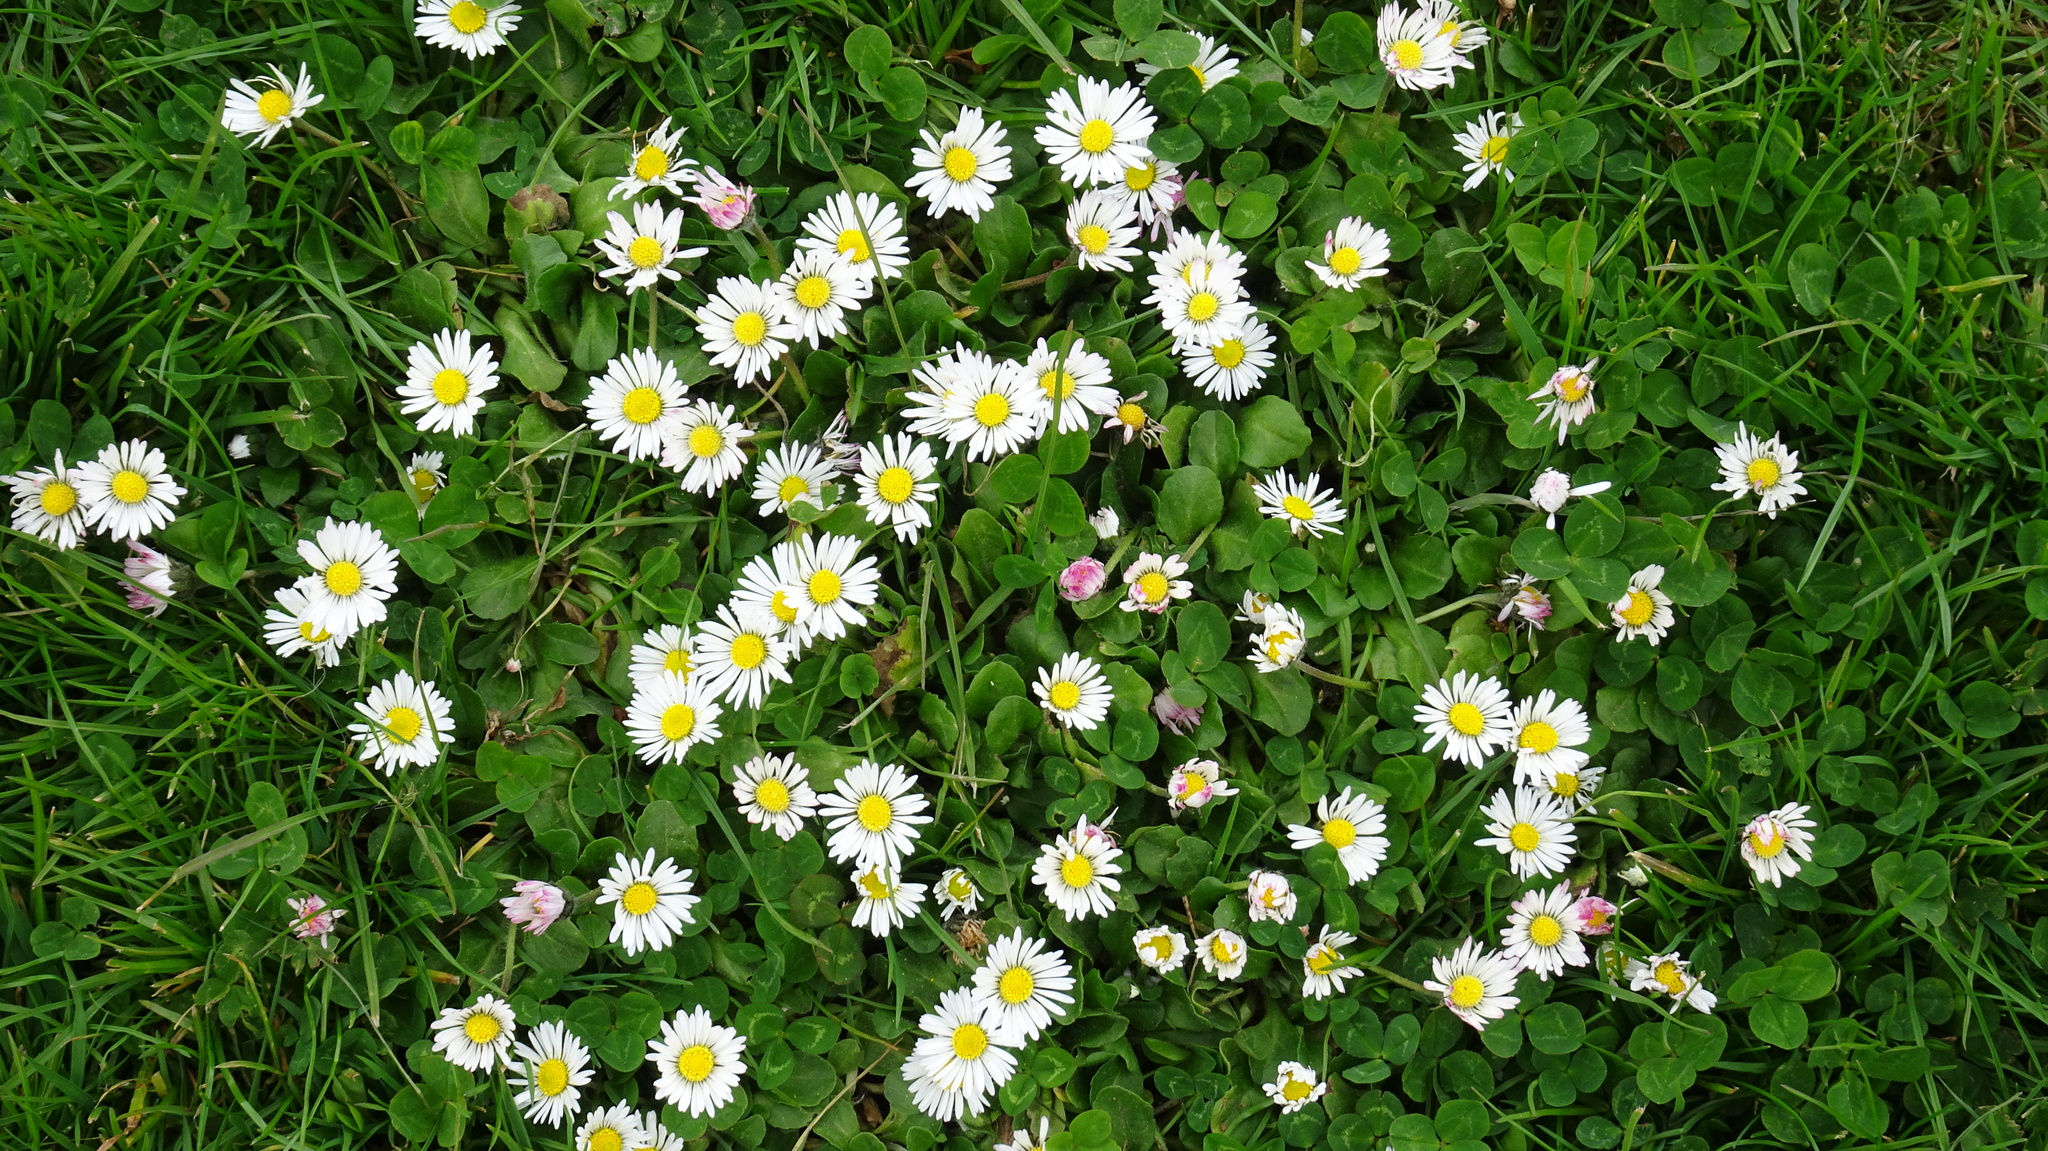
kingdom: Plantae
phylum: Tracheophyta
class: Magnoliopsida
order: Asterales
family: Asteraceae
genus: Bellis
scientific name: Bellis perennis
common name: Lawndaisy
